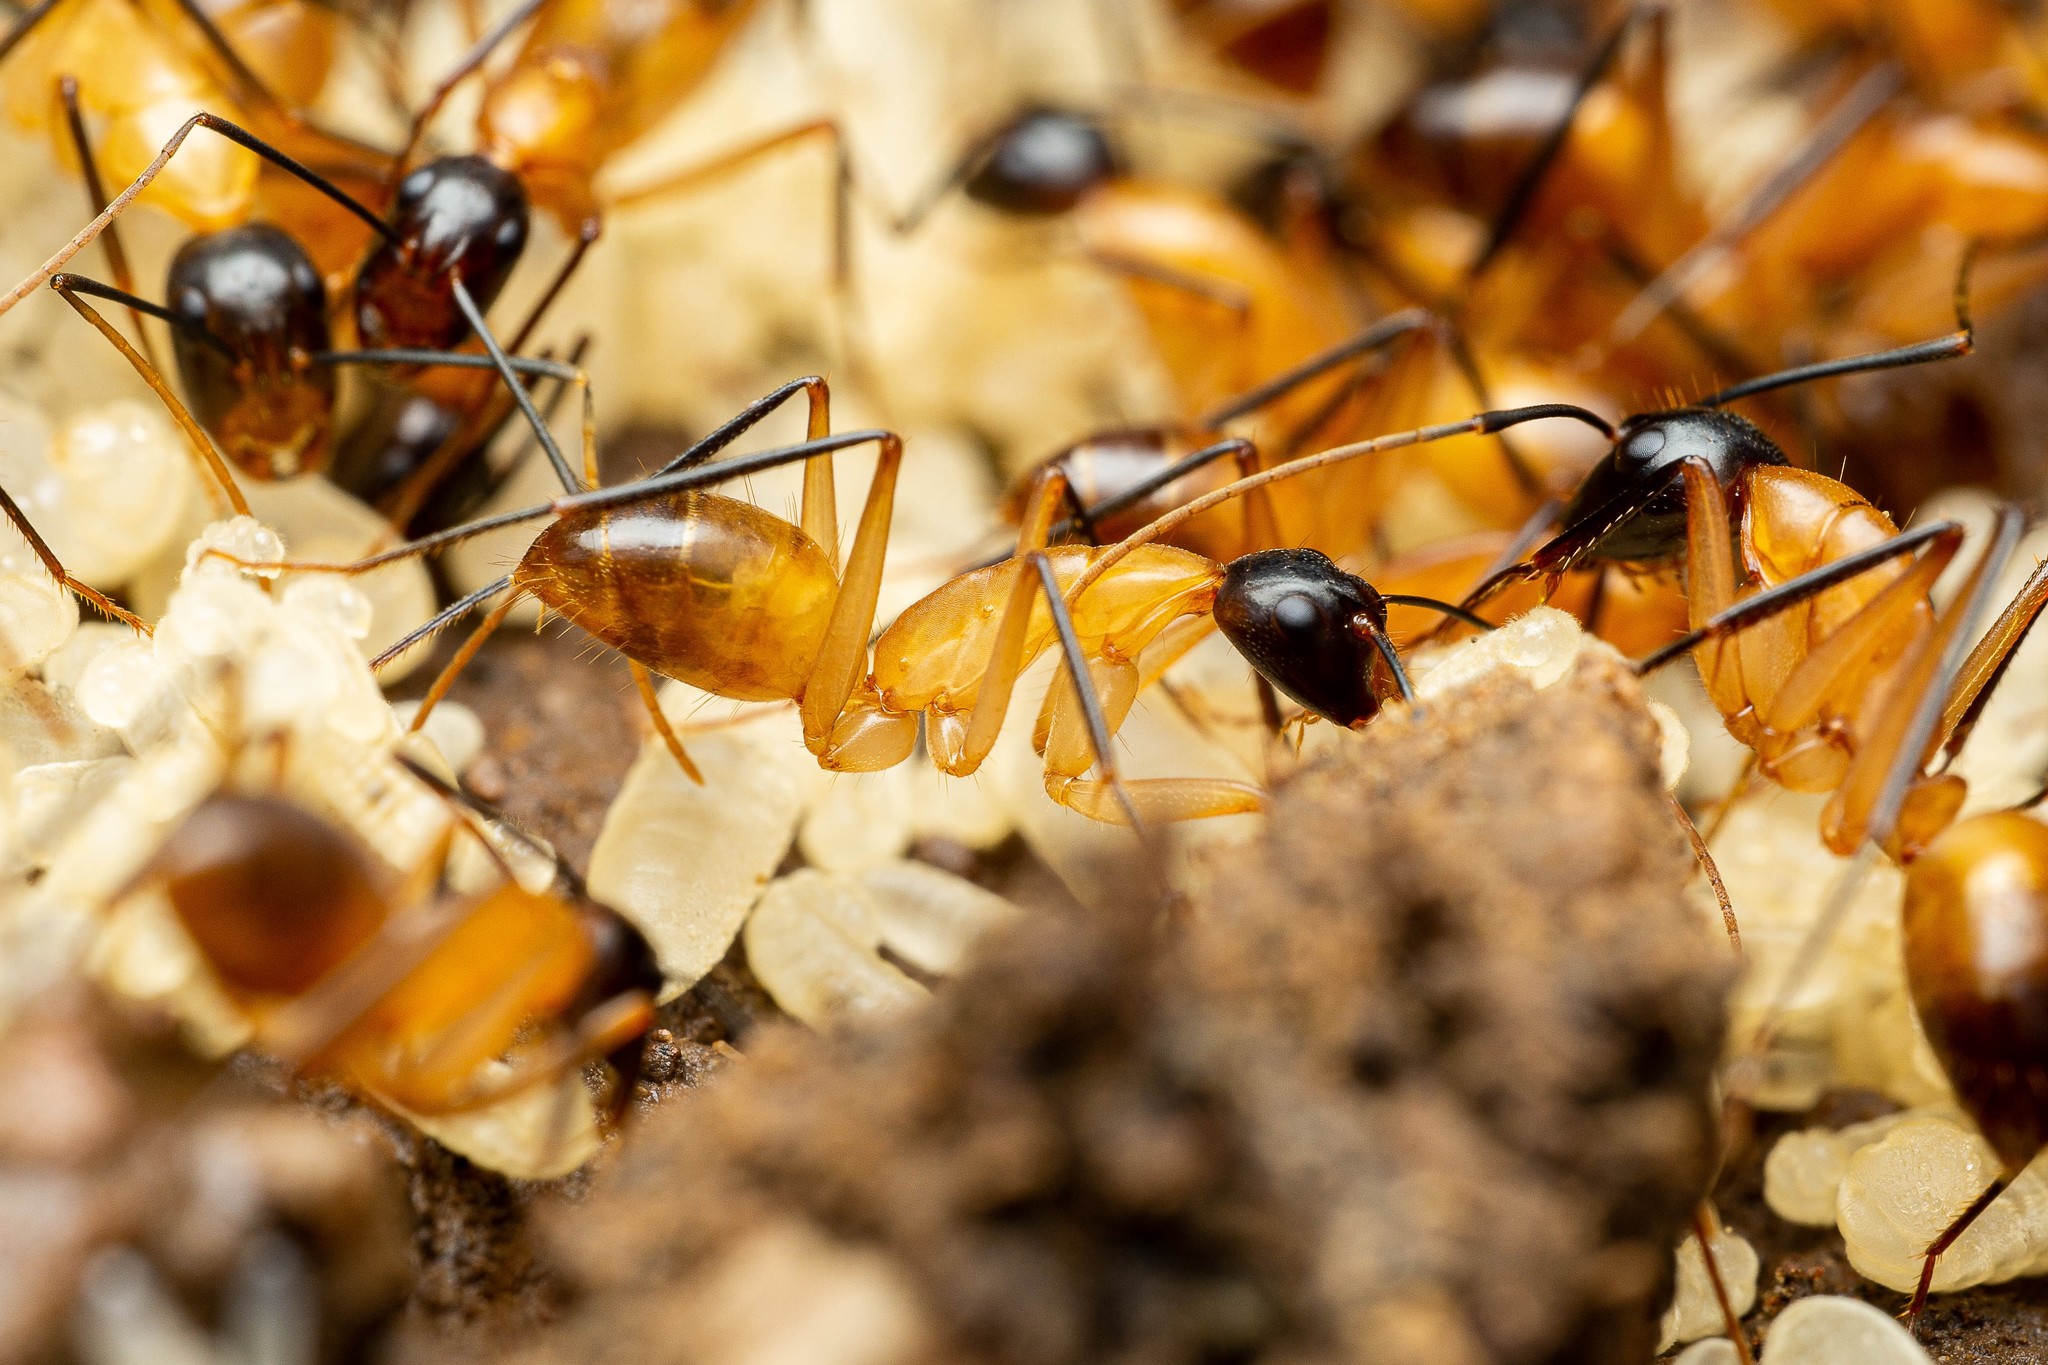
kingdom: Animalia
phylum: Arthropoda
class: Insecta
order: Hymenoptera
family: Formicidae
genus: Camponotus
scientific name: Camponotus ocreatus
